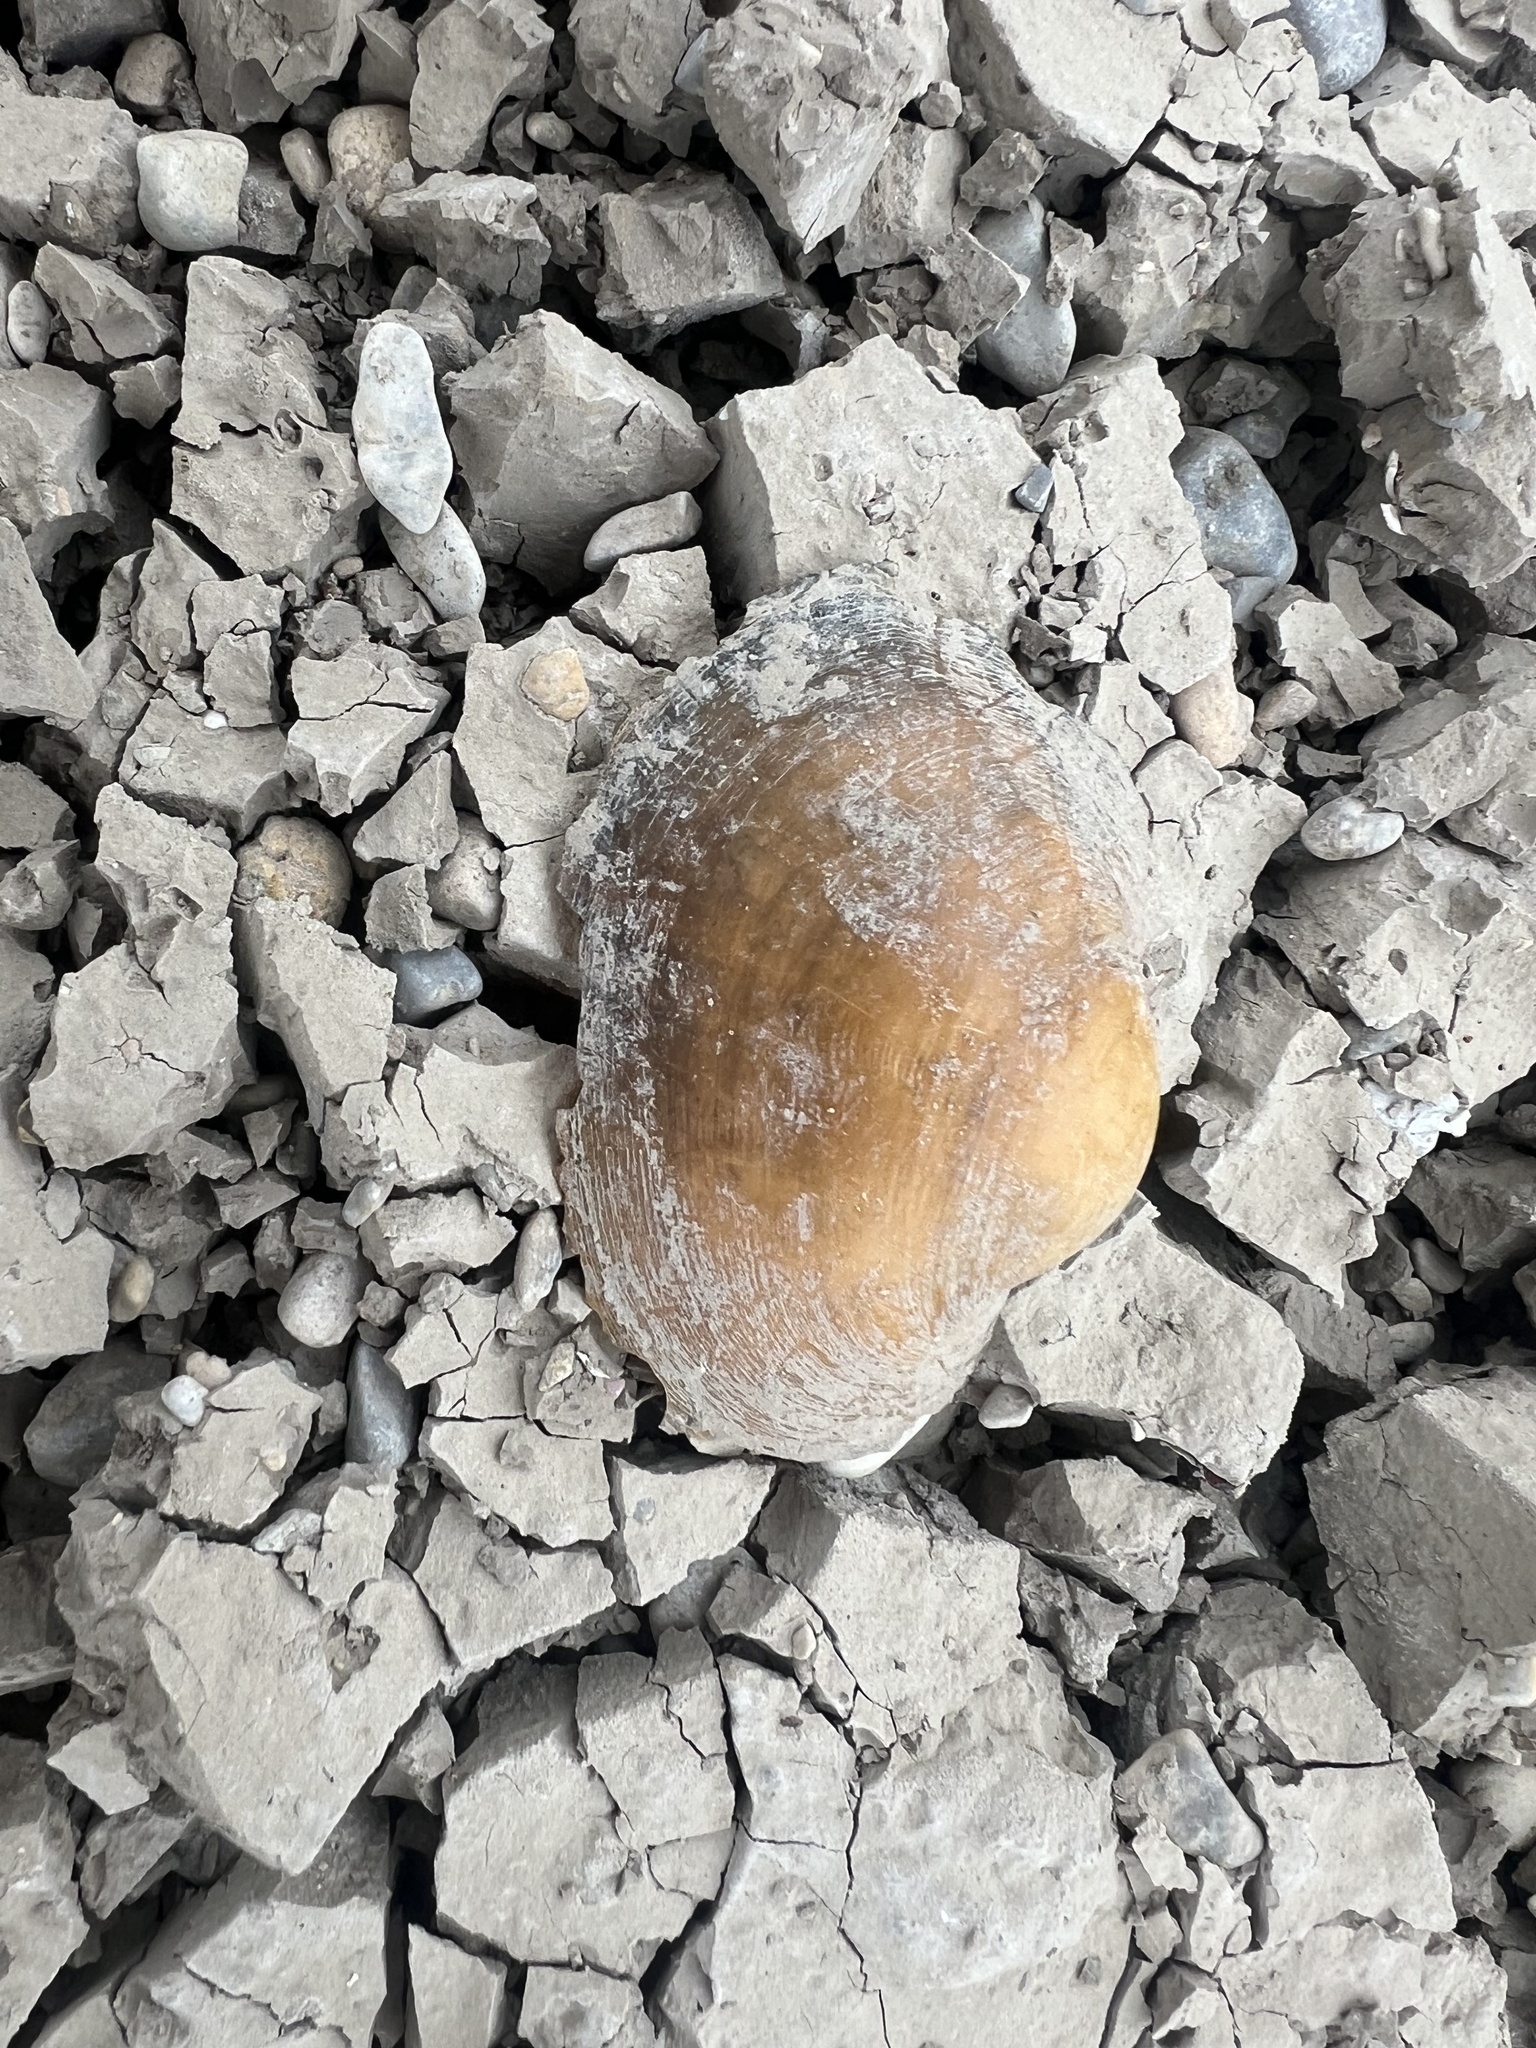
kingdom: Animalia
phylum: Mollusca
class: Bivalvia
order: Unionida
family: Unionidae
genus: Cyrtonaias
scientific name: Cyrtonaias tampicoensis
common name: Tampico pearlymussel
